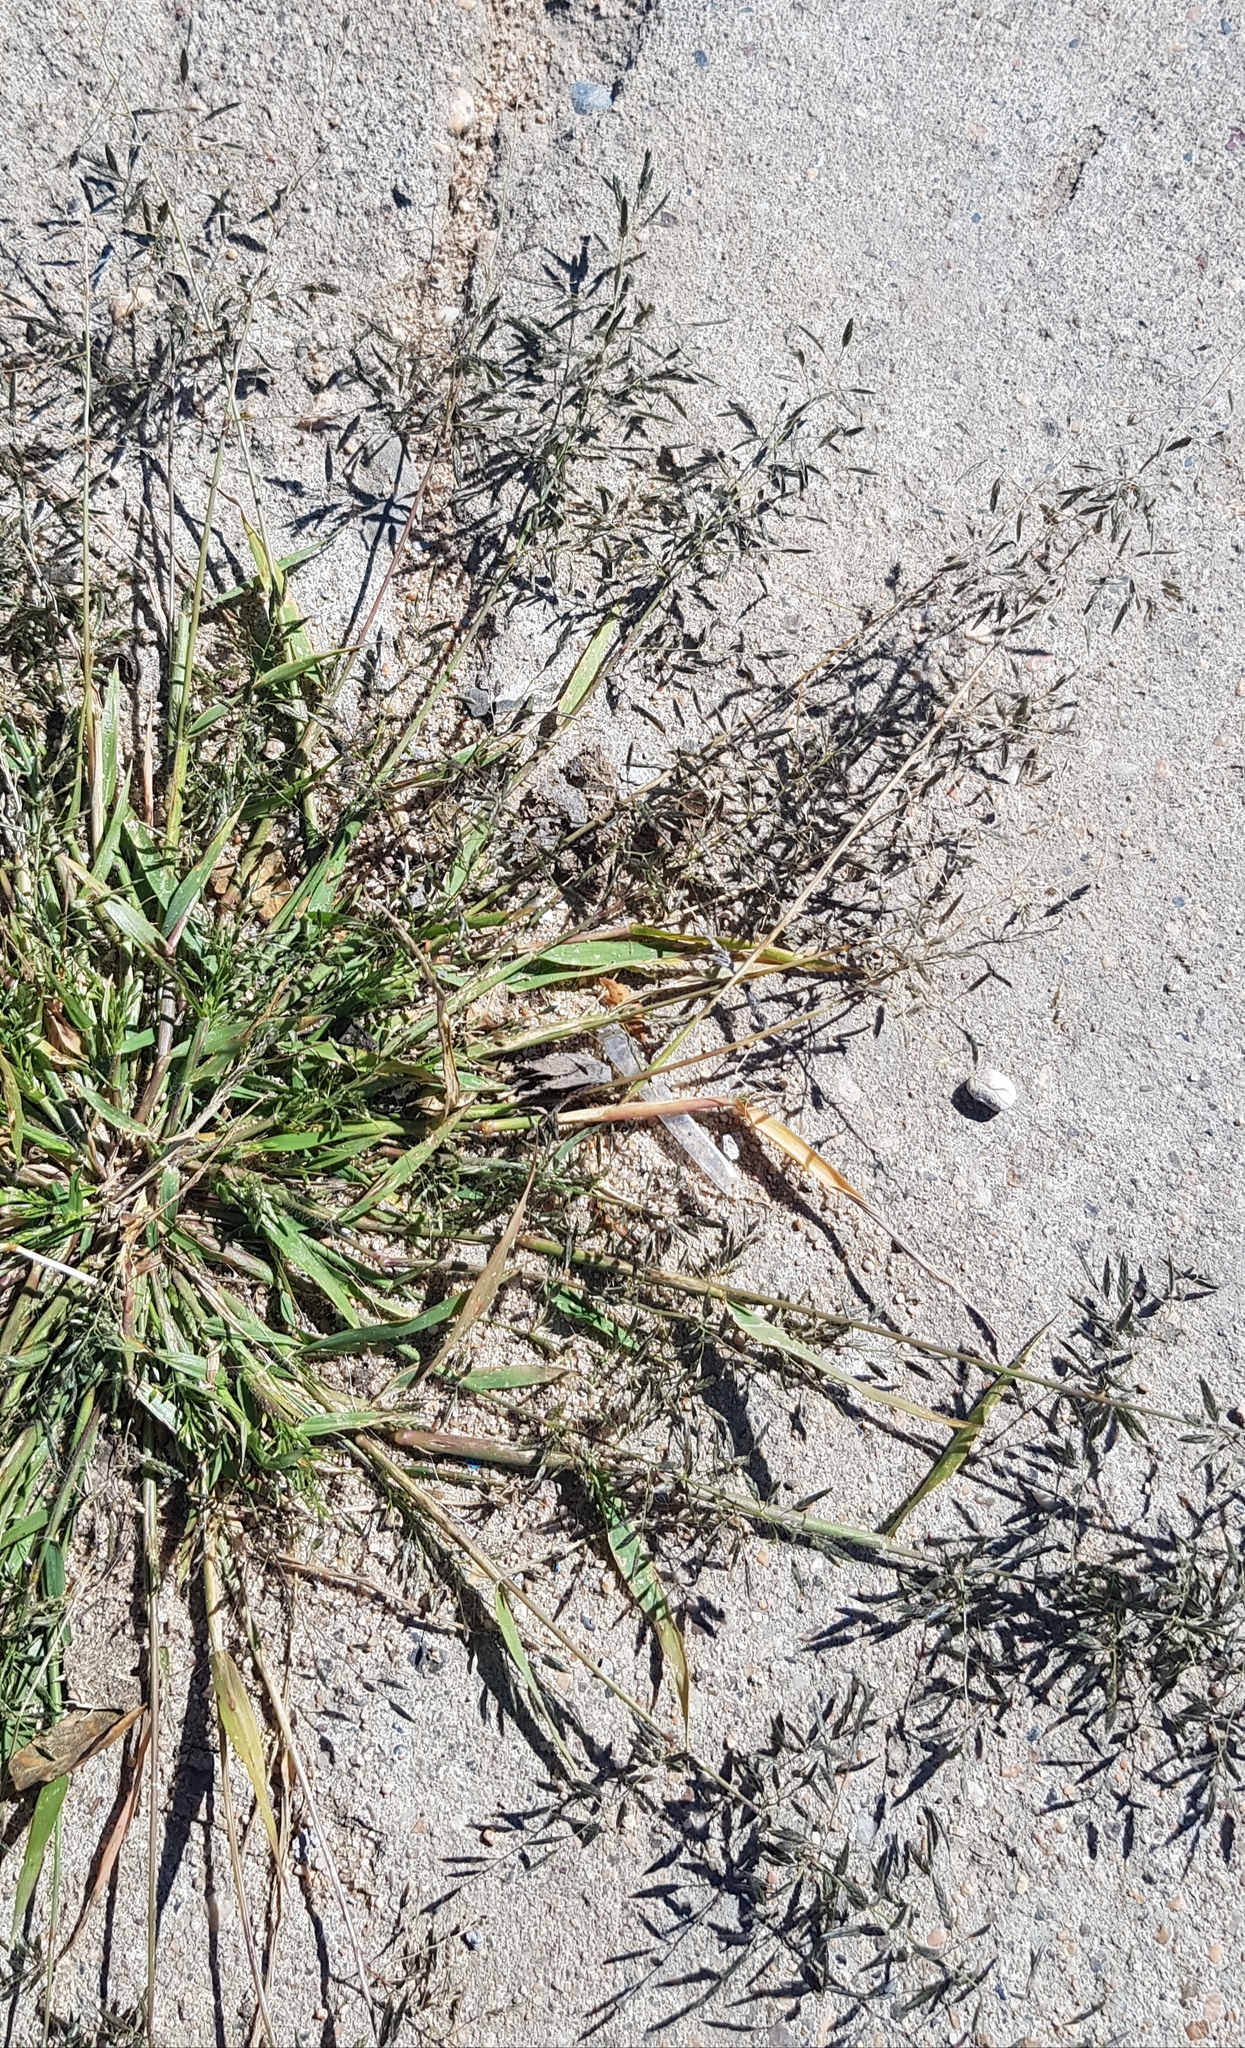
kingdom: Plantae
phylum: Tracheophyta
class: Liliopsida
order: Poales
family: Poaceae
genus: Eragrostis
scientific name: Eragrostis minor
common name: Small love-grass
